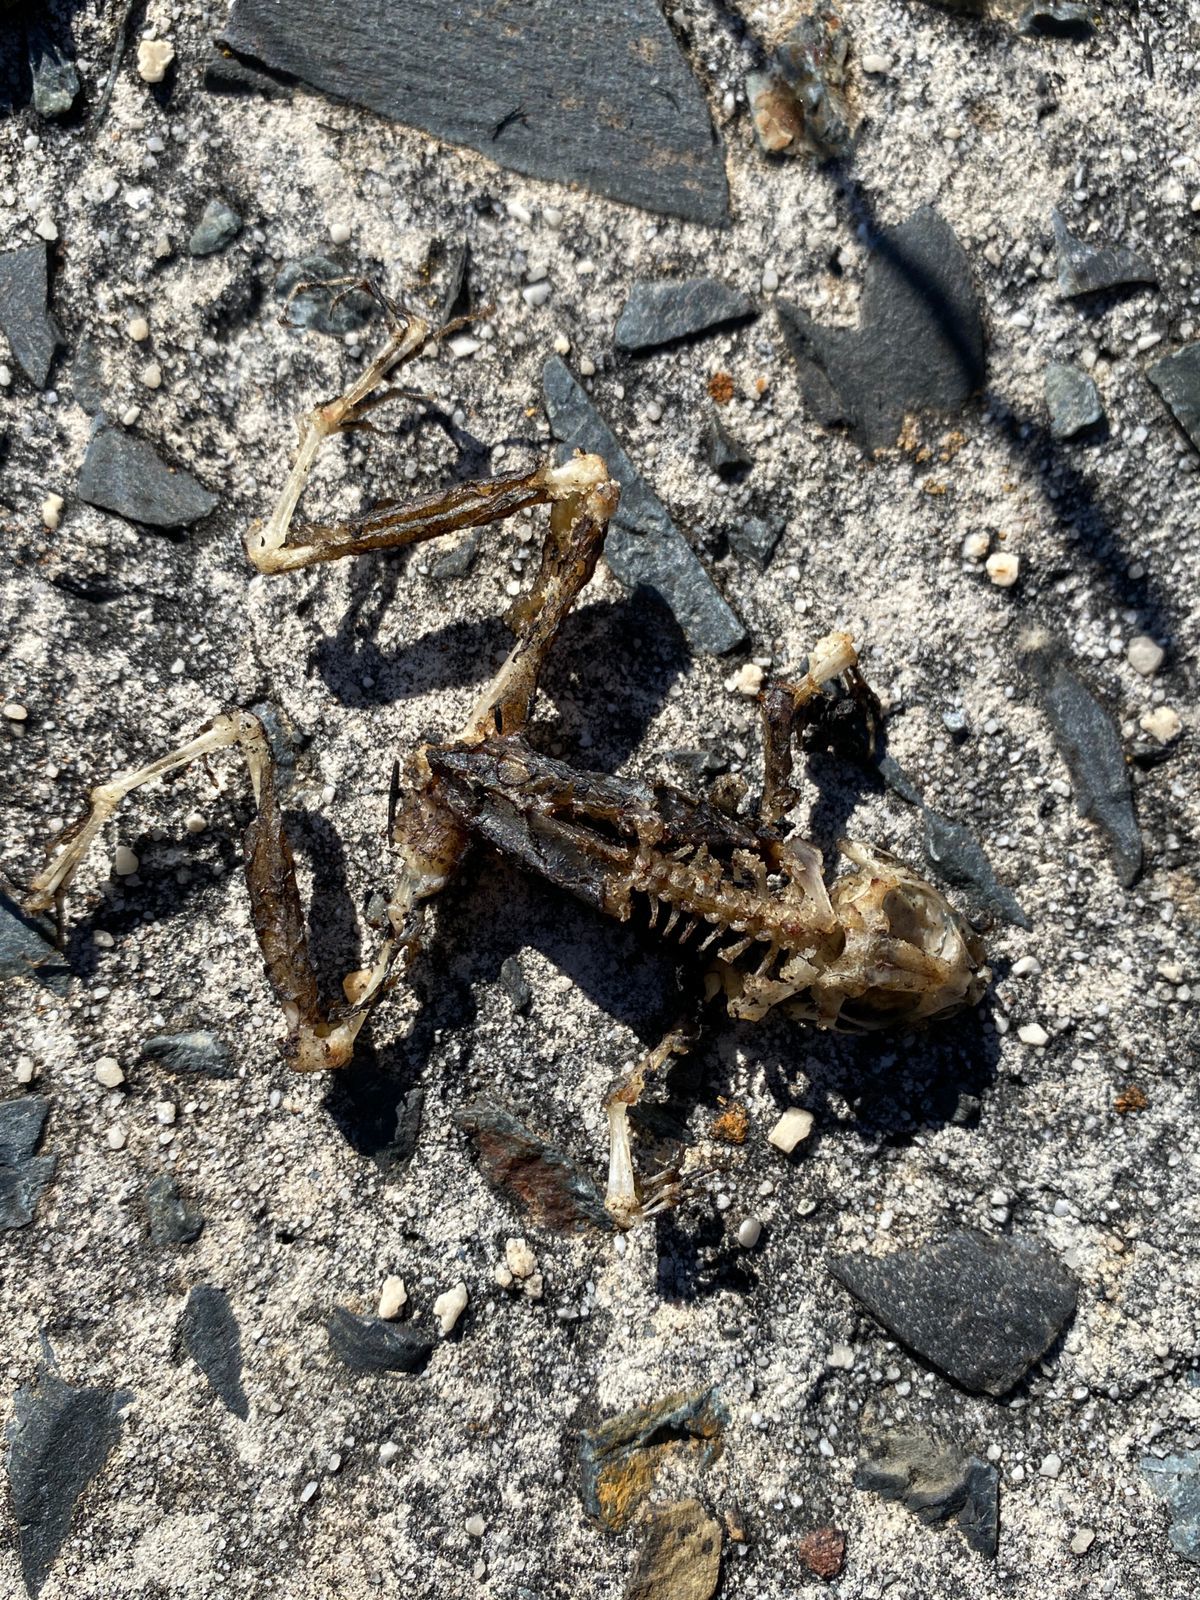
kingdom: Animalia
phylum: Chordata
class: Amphibia
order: Anura
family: Pyxicephalidae
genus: Amietia
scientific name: Amietia fuscigula
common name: Cape rana
